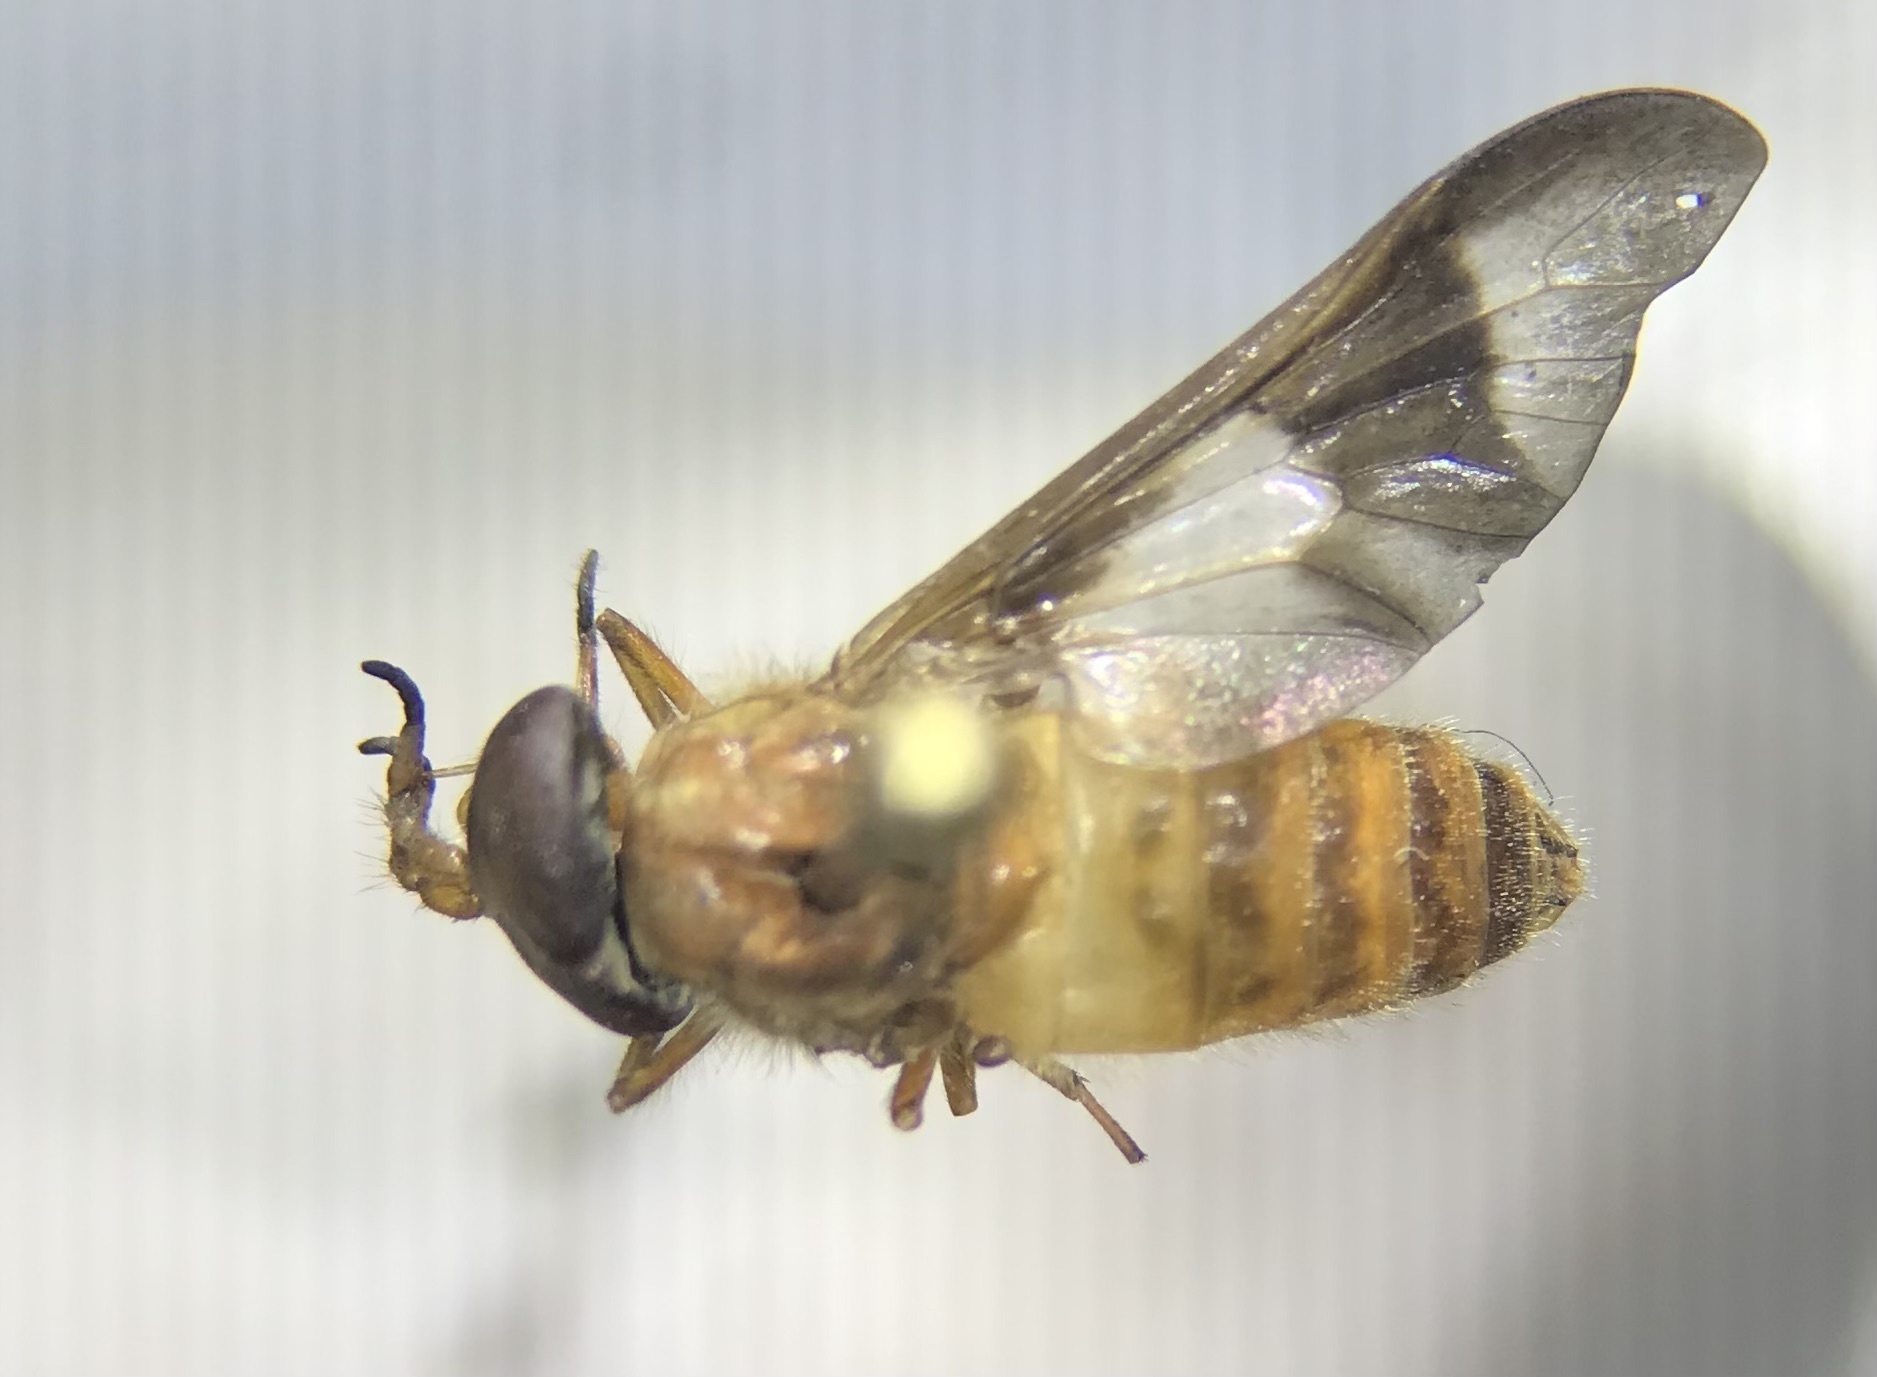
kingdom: Animalia
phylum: Arthropoda
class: Insecta
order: Diptera
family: Tabanidae
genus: Chrysops
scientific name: Chrysops flavidus
